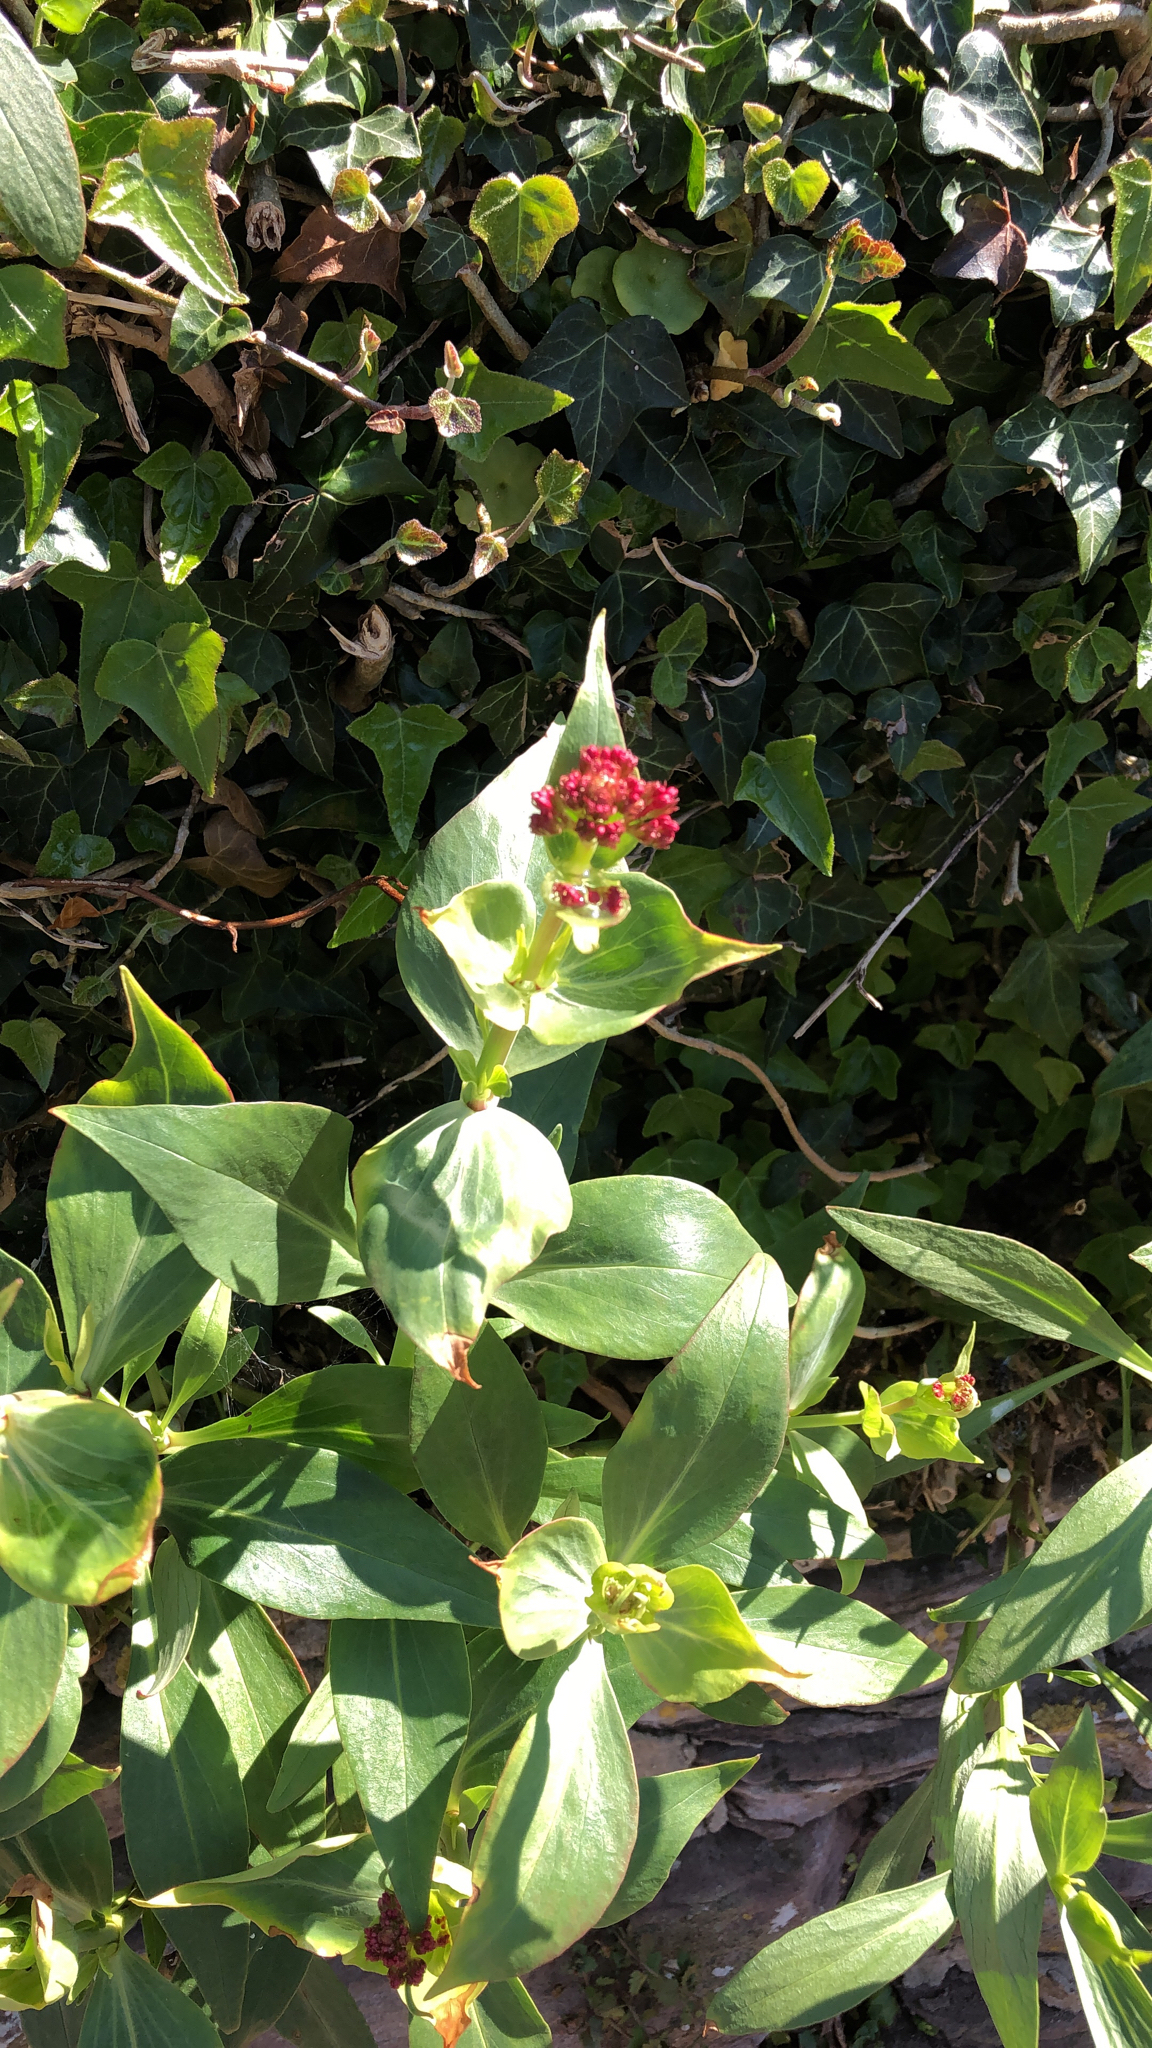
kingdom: Plantae
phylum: Tracheophyta
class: Magnoliopsida
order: Dipsacales
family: Caprifoliaceae
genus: Centranthus
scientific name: Centranthus ruber
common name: Red valerian
